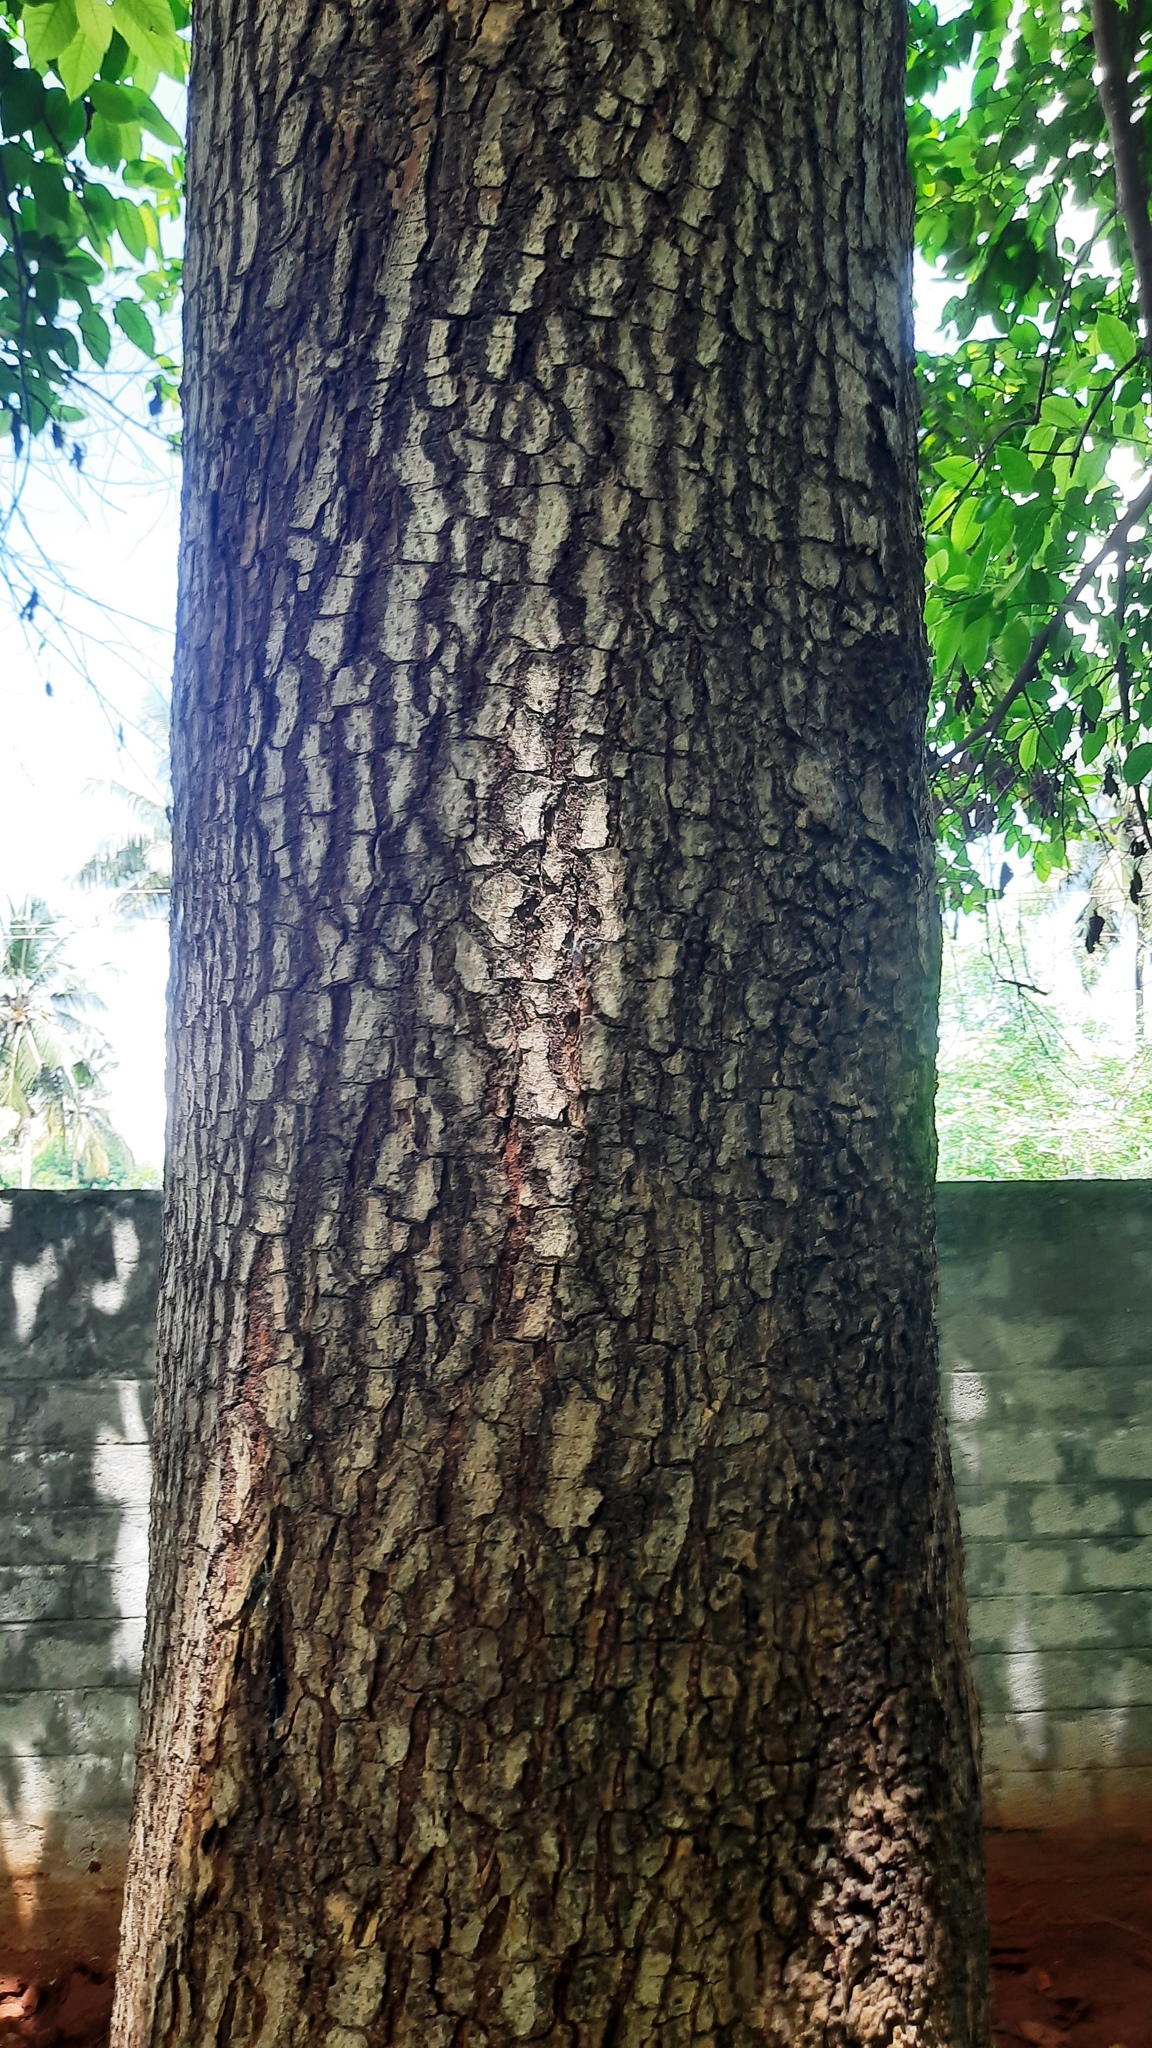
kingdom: Plantae
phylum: Tracheophyta
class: Magnoliopsida
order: Gentianales
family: Rubiaceae
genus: Neolamarckia
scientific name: Neolamarckia cadamba
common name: Leichhardt-pine
